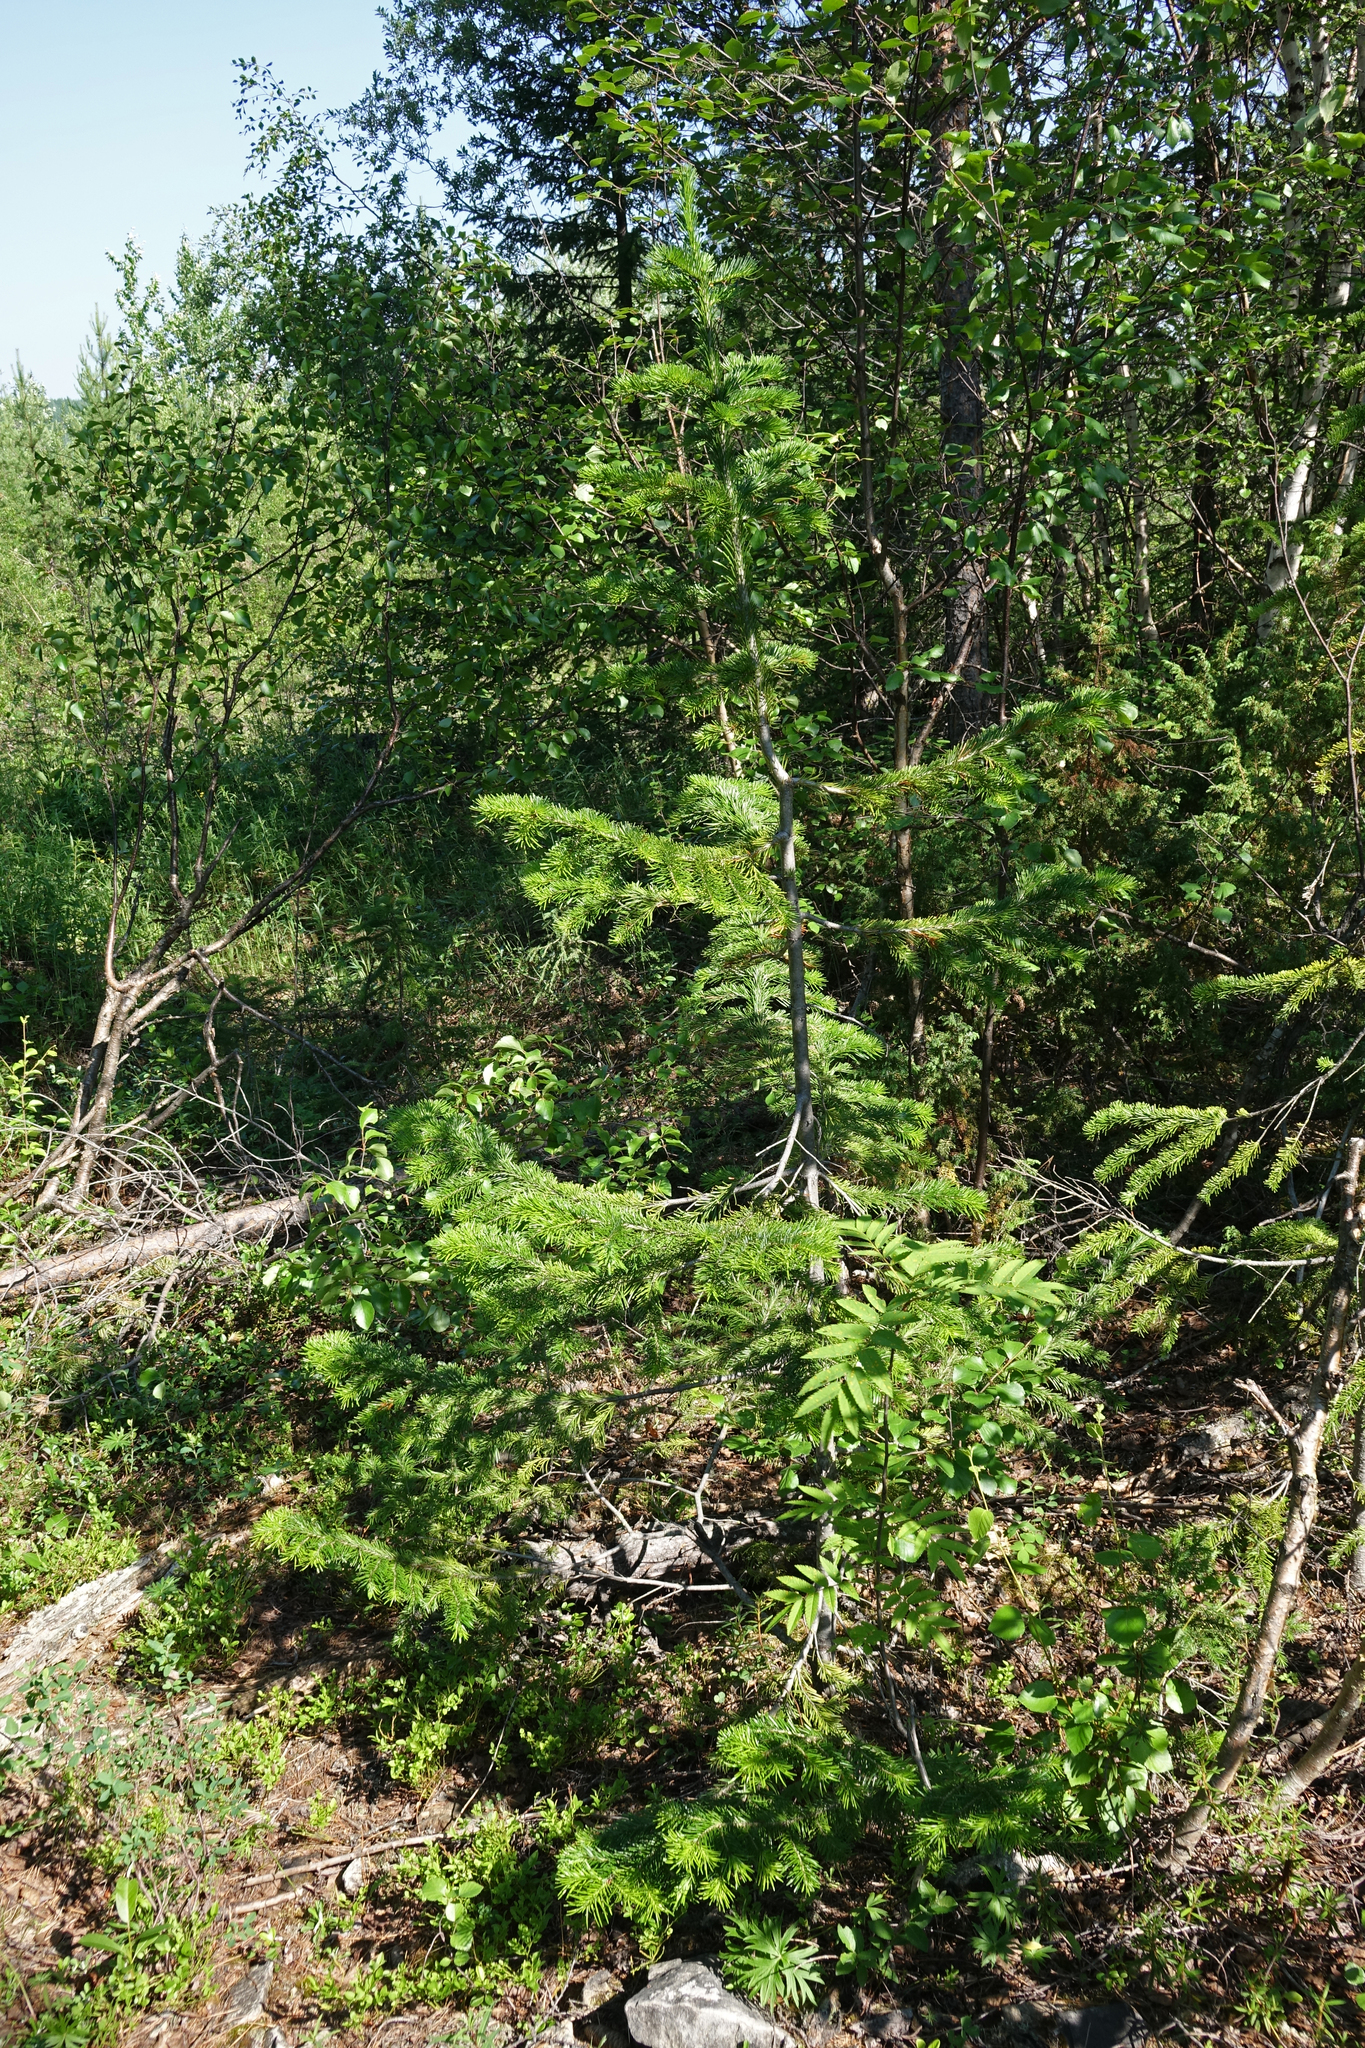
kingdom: Plantae
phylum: Tracheophyta
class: Pinopsida
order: Pinales
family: Pinaceae
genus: Abies
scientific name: Abies sibirica
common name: Siberian fir
